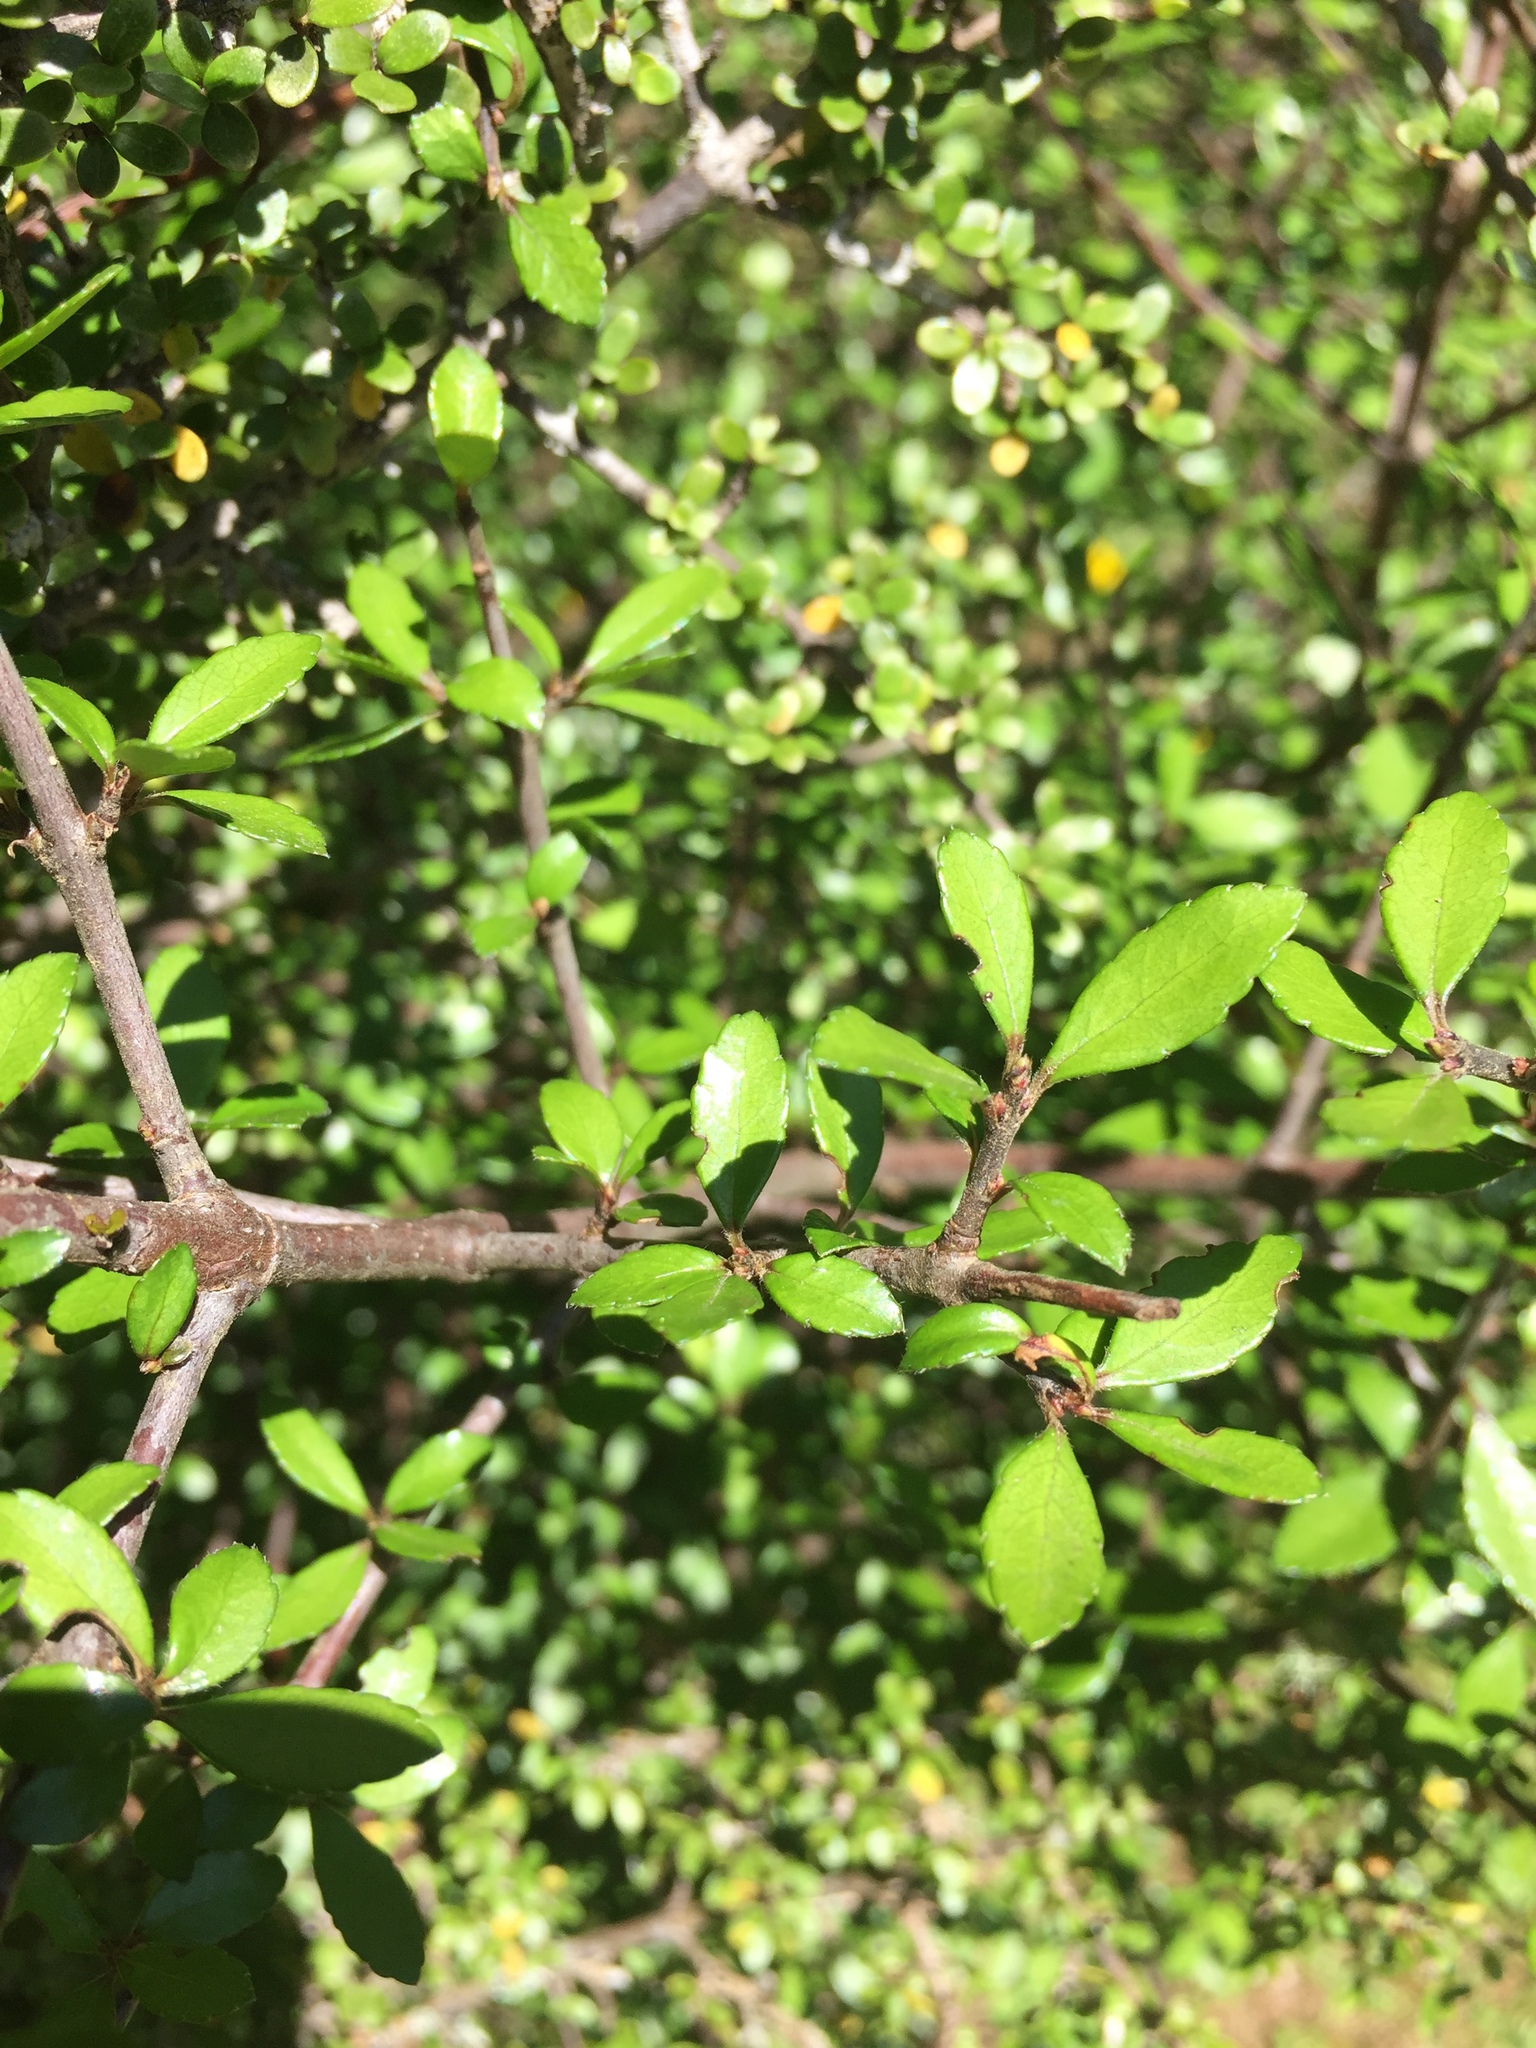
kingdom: Plantae
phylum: Tracheophyta
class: Magnoliopsida
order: Oxalidales
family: Elaeocarpaceae
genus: Aristotelia
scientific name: Aristotelia fruticosa
